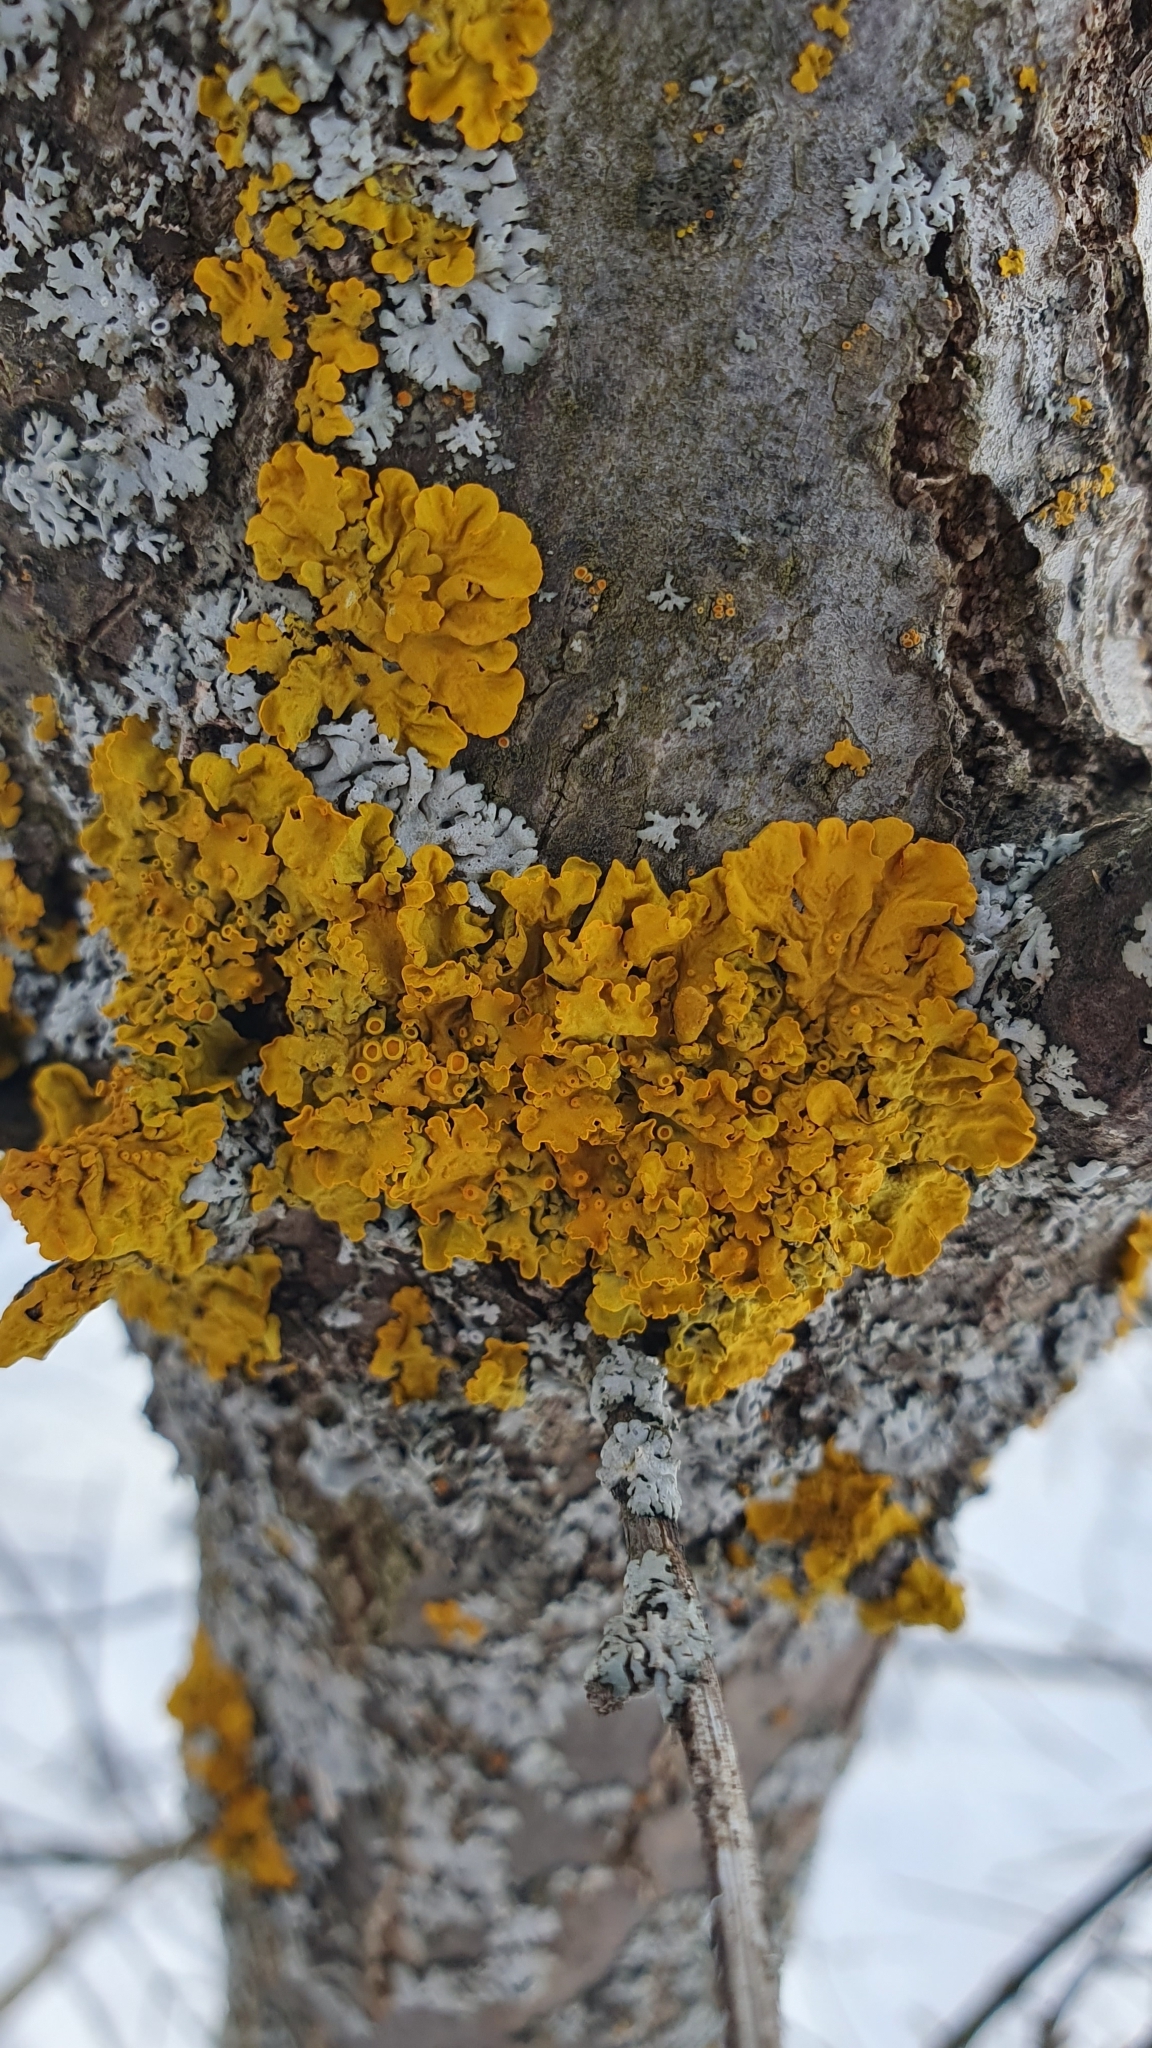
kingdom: Fungi
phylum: Ascomycota
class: Lecanoromycetes
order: Teloschistales
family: Teloschistaceae
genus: Xanthoria
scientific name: Xanthoria parietina
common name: Common orange lichen
